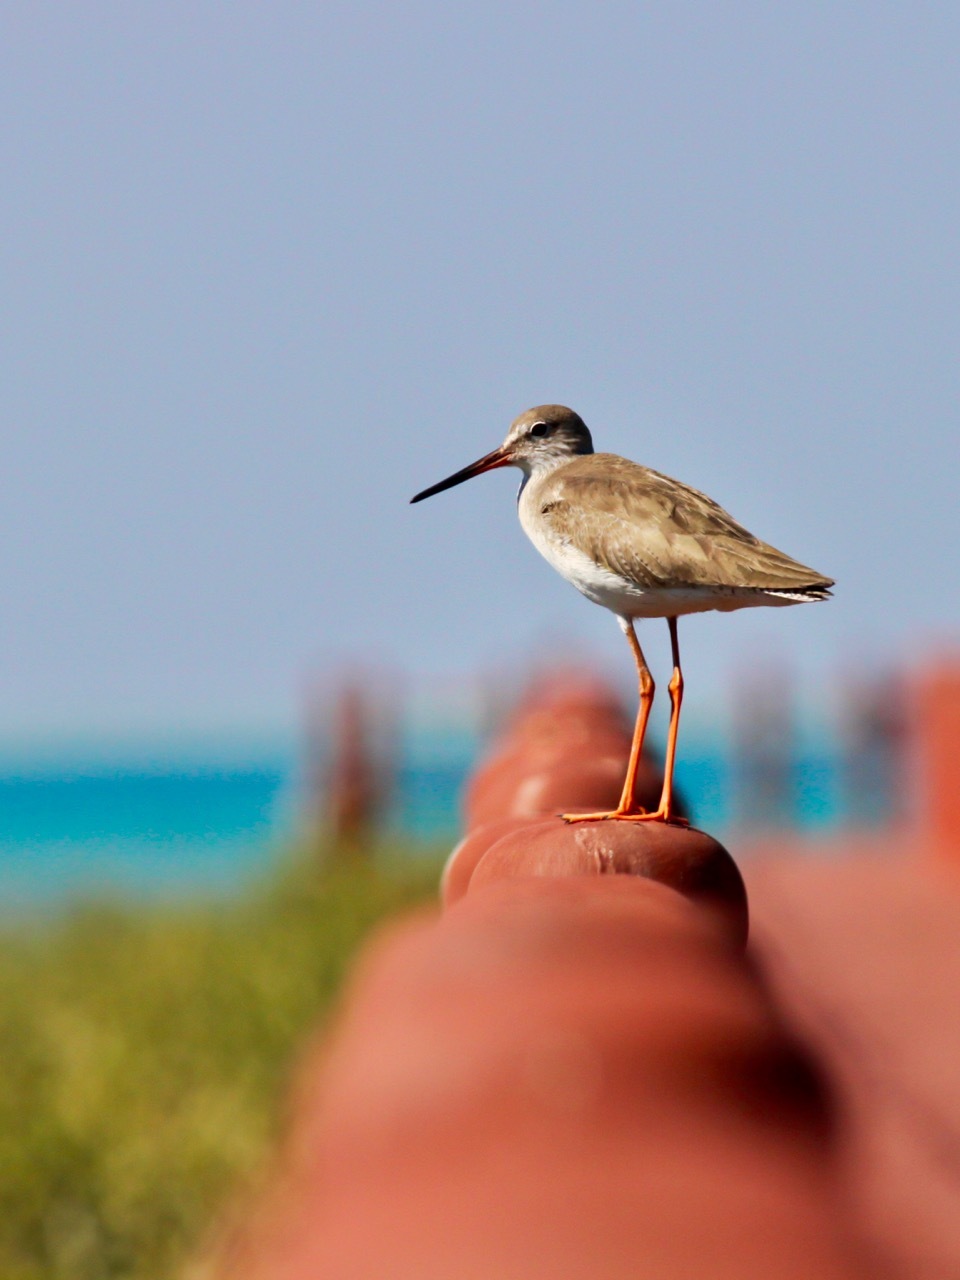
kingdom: Animalia
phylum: Chordata
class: Aves
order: Charadriiformes
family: Scolopacidae
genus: Tringa
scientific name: Tringa totanus
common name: Common redshank
